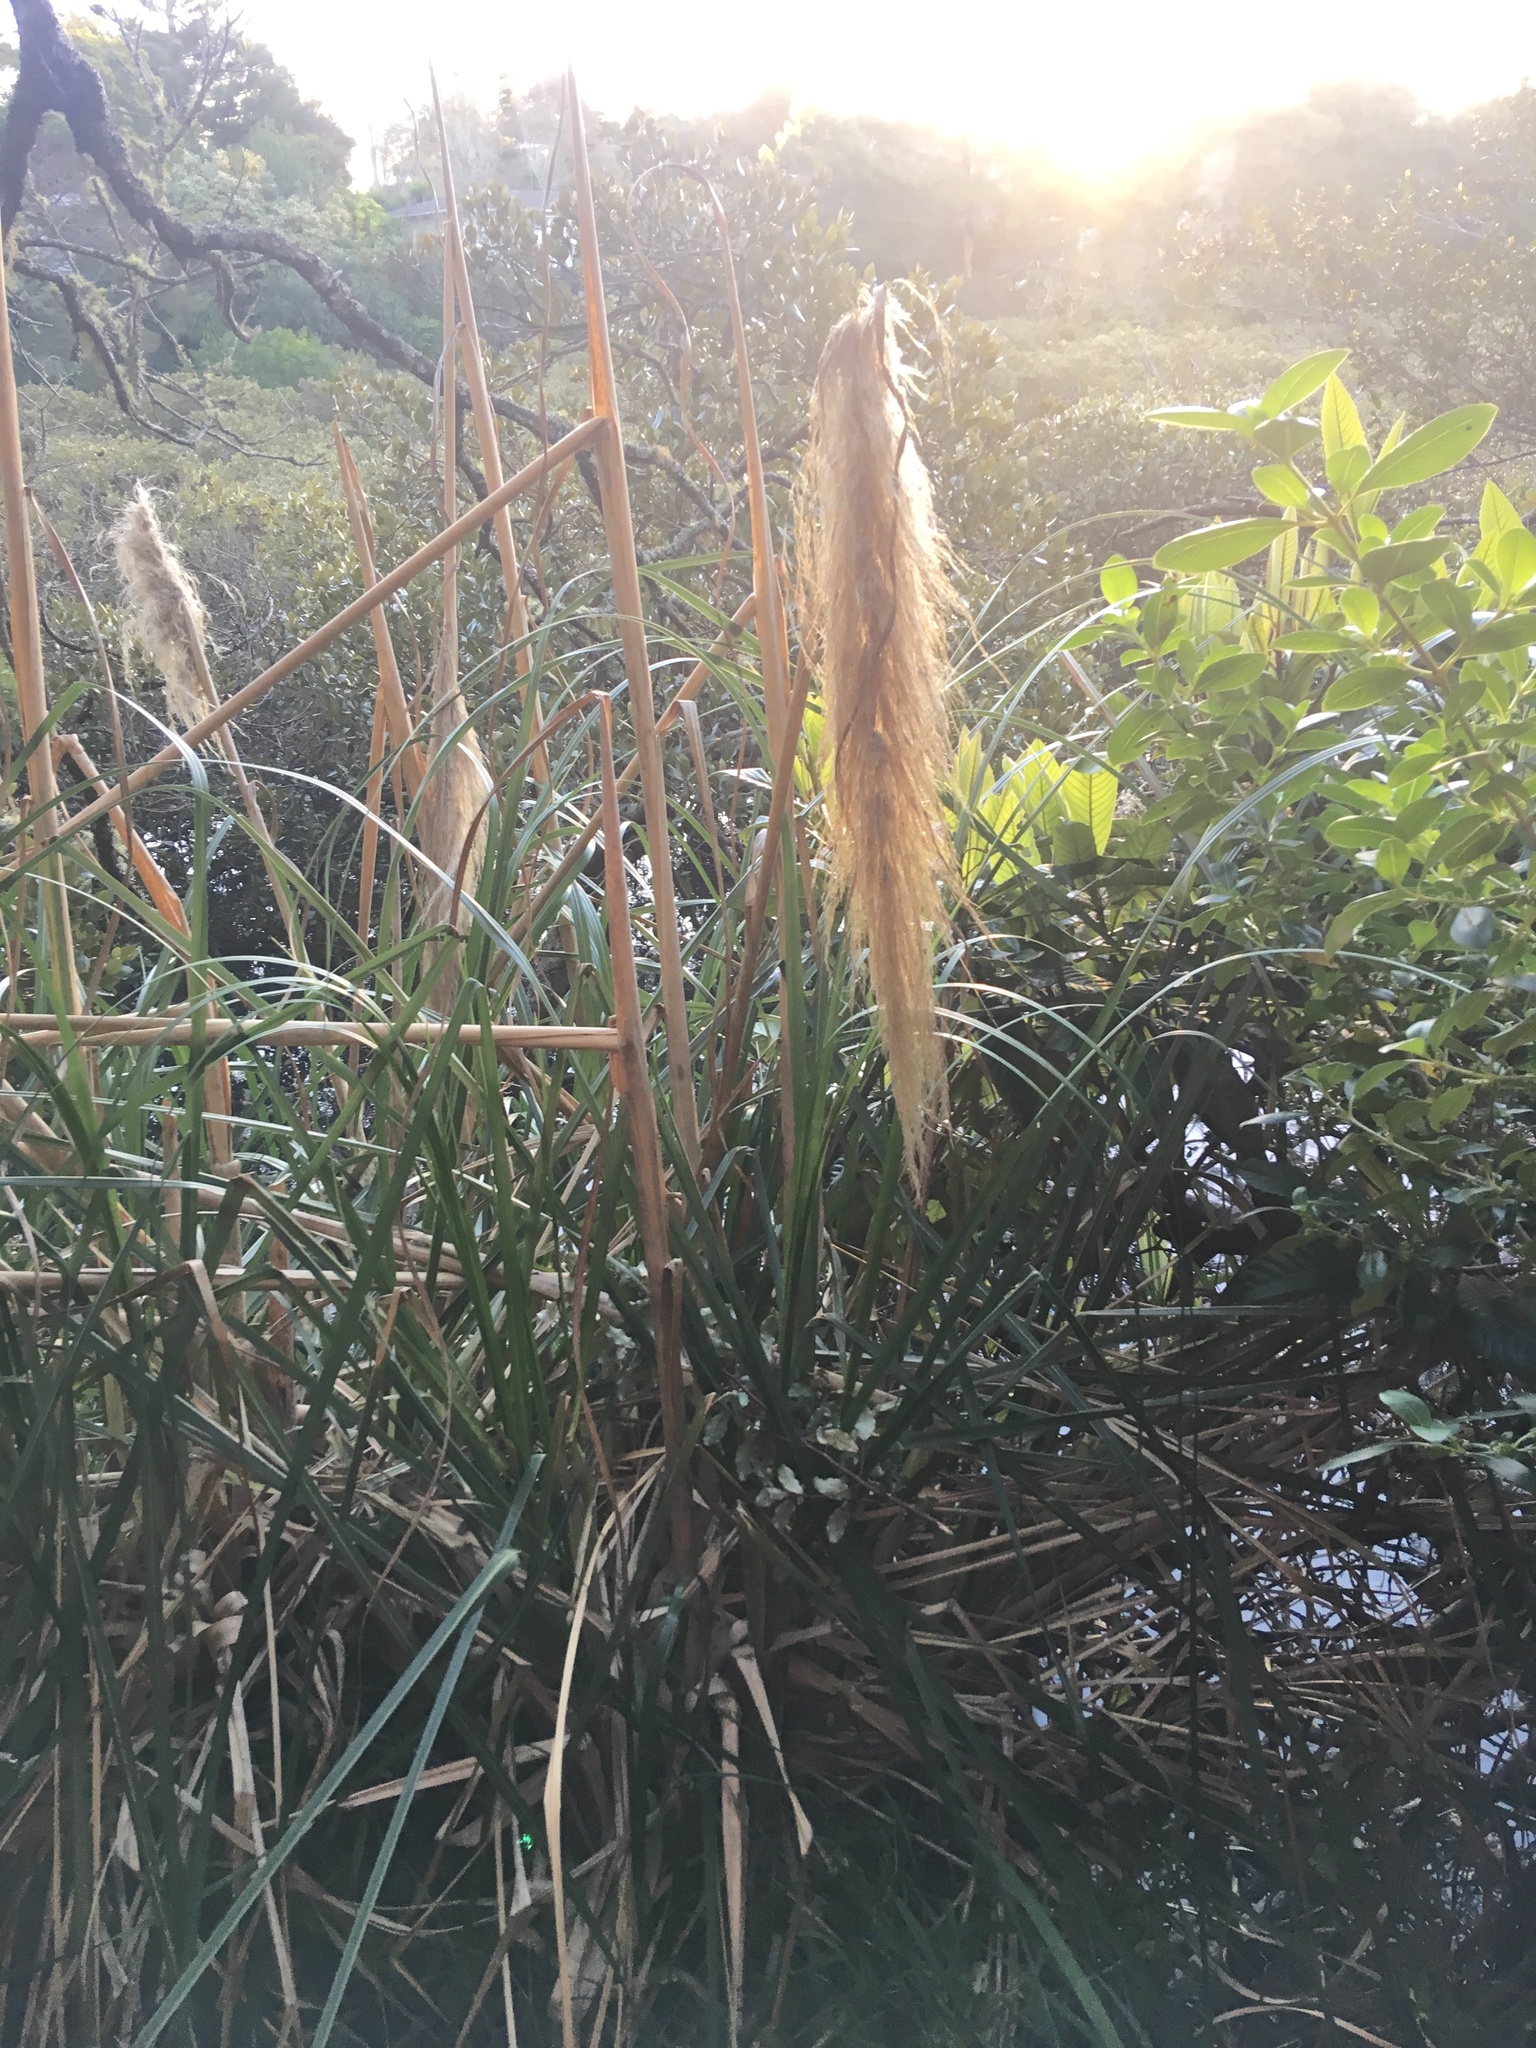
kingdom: Plantae
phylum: Tracheophyta
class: Liliopsida
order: Poales
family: Poaceae
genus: Cortaderia
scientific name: Cortaderia selloana
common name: Uruguayan pampas grass
